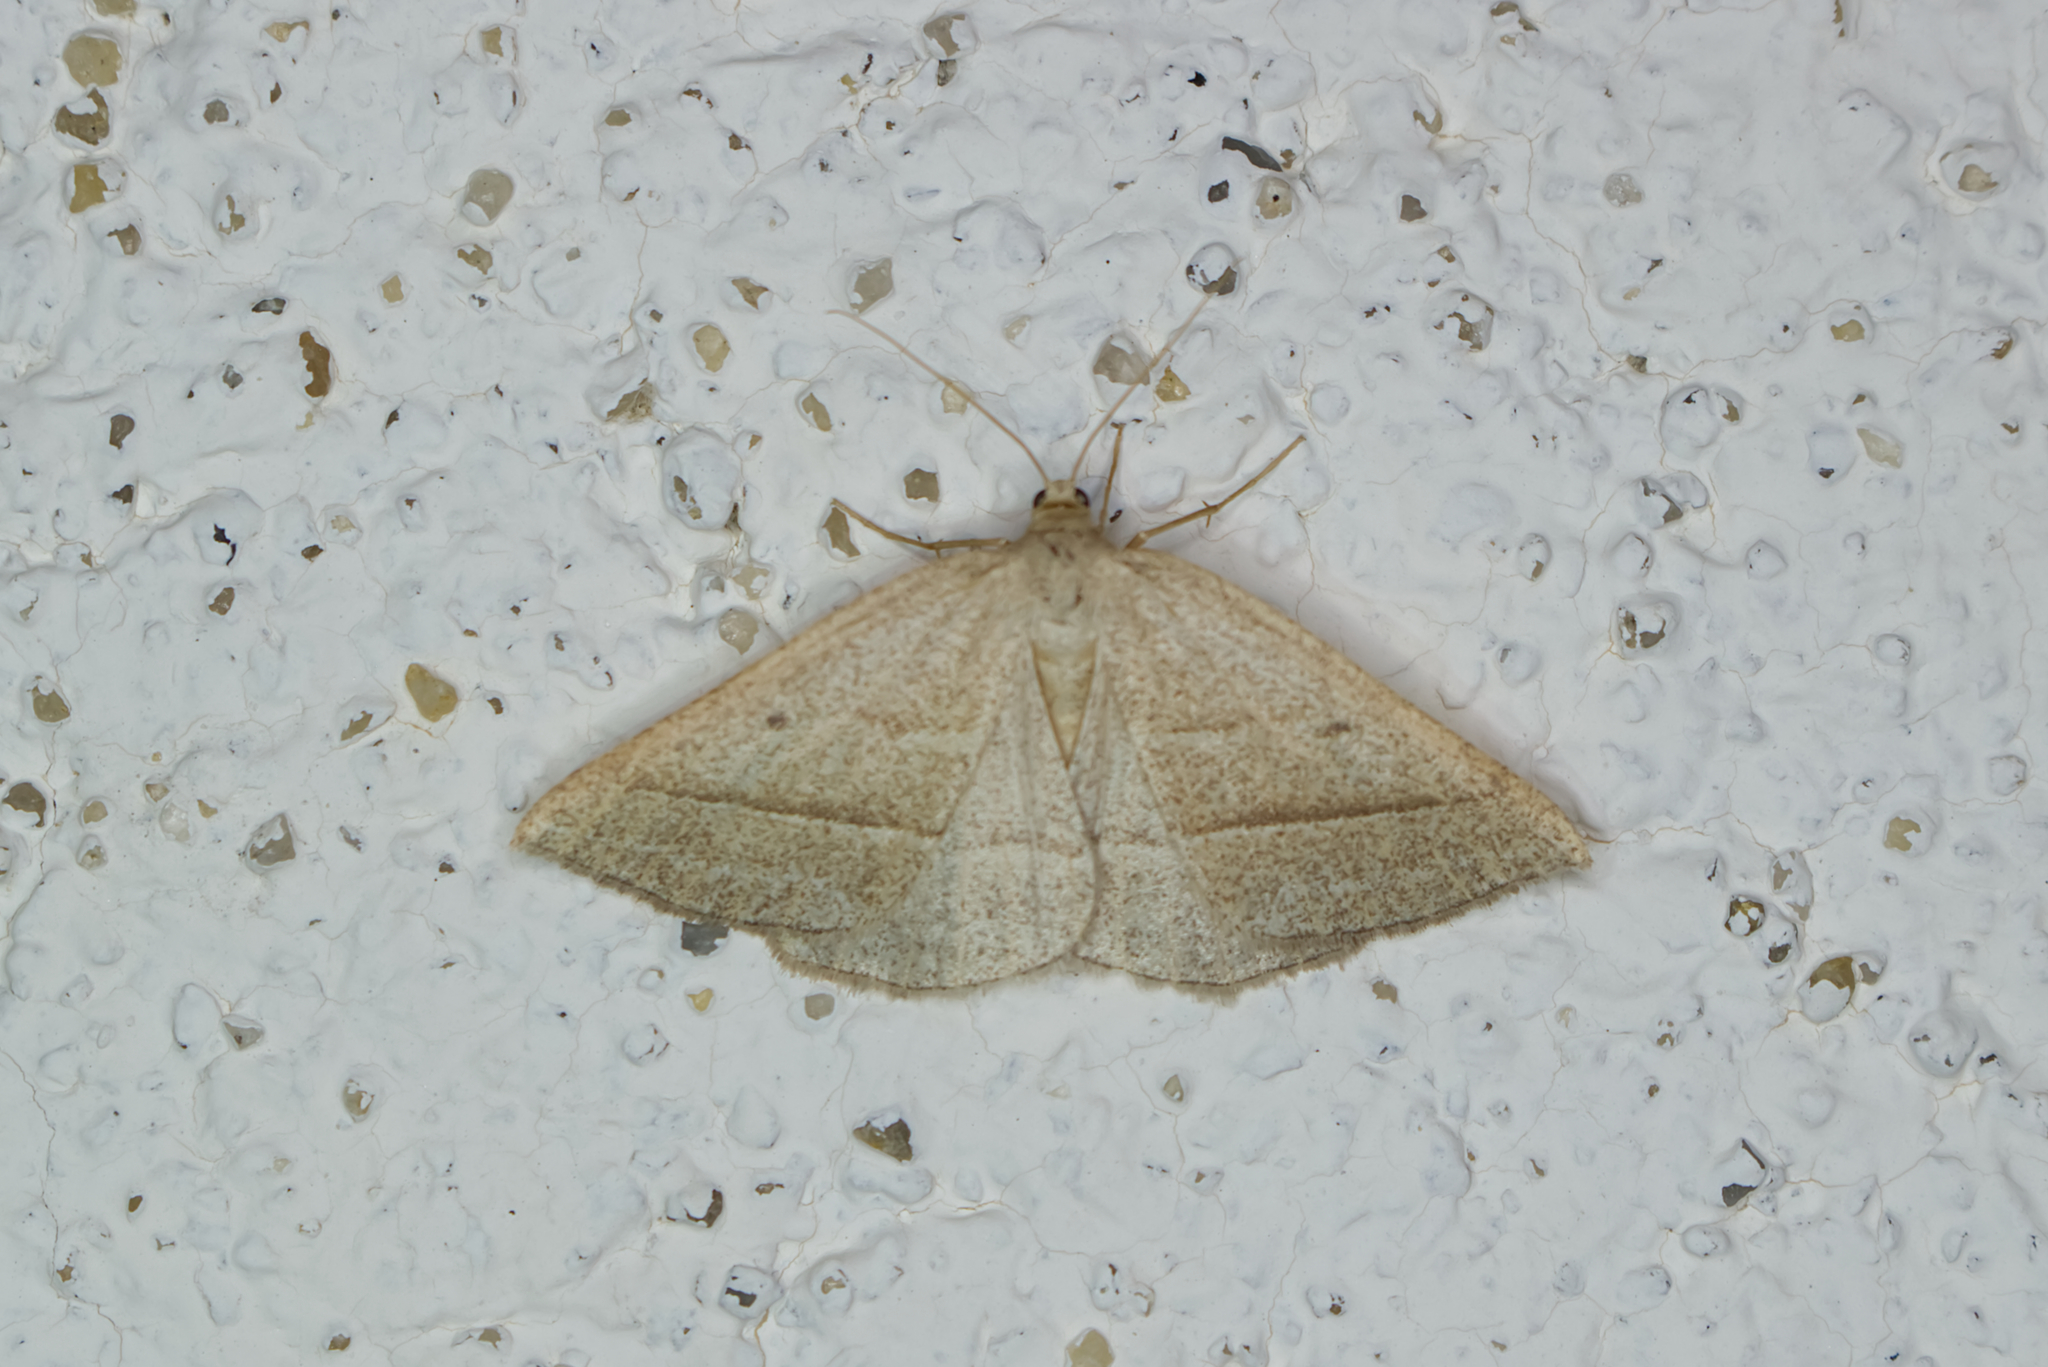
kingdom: Animalia
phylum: Arthropoda
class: Insecta
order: Lepidoptera
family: Pterophoridae
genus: Pterophorus
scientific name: Pterophorus Petrophora chlorosata
